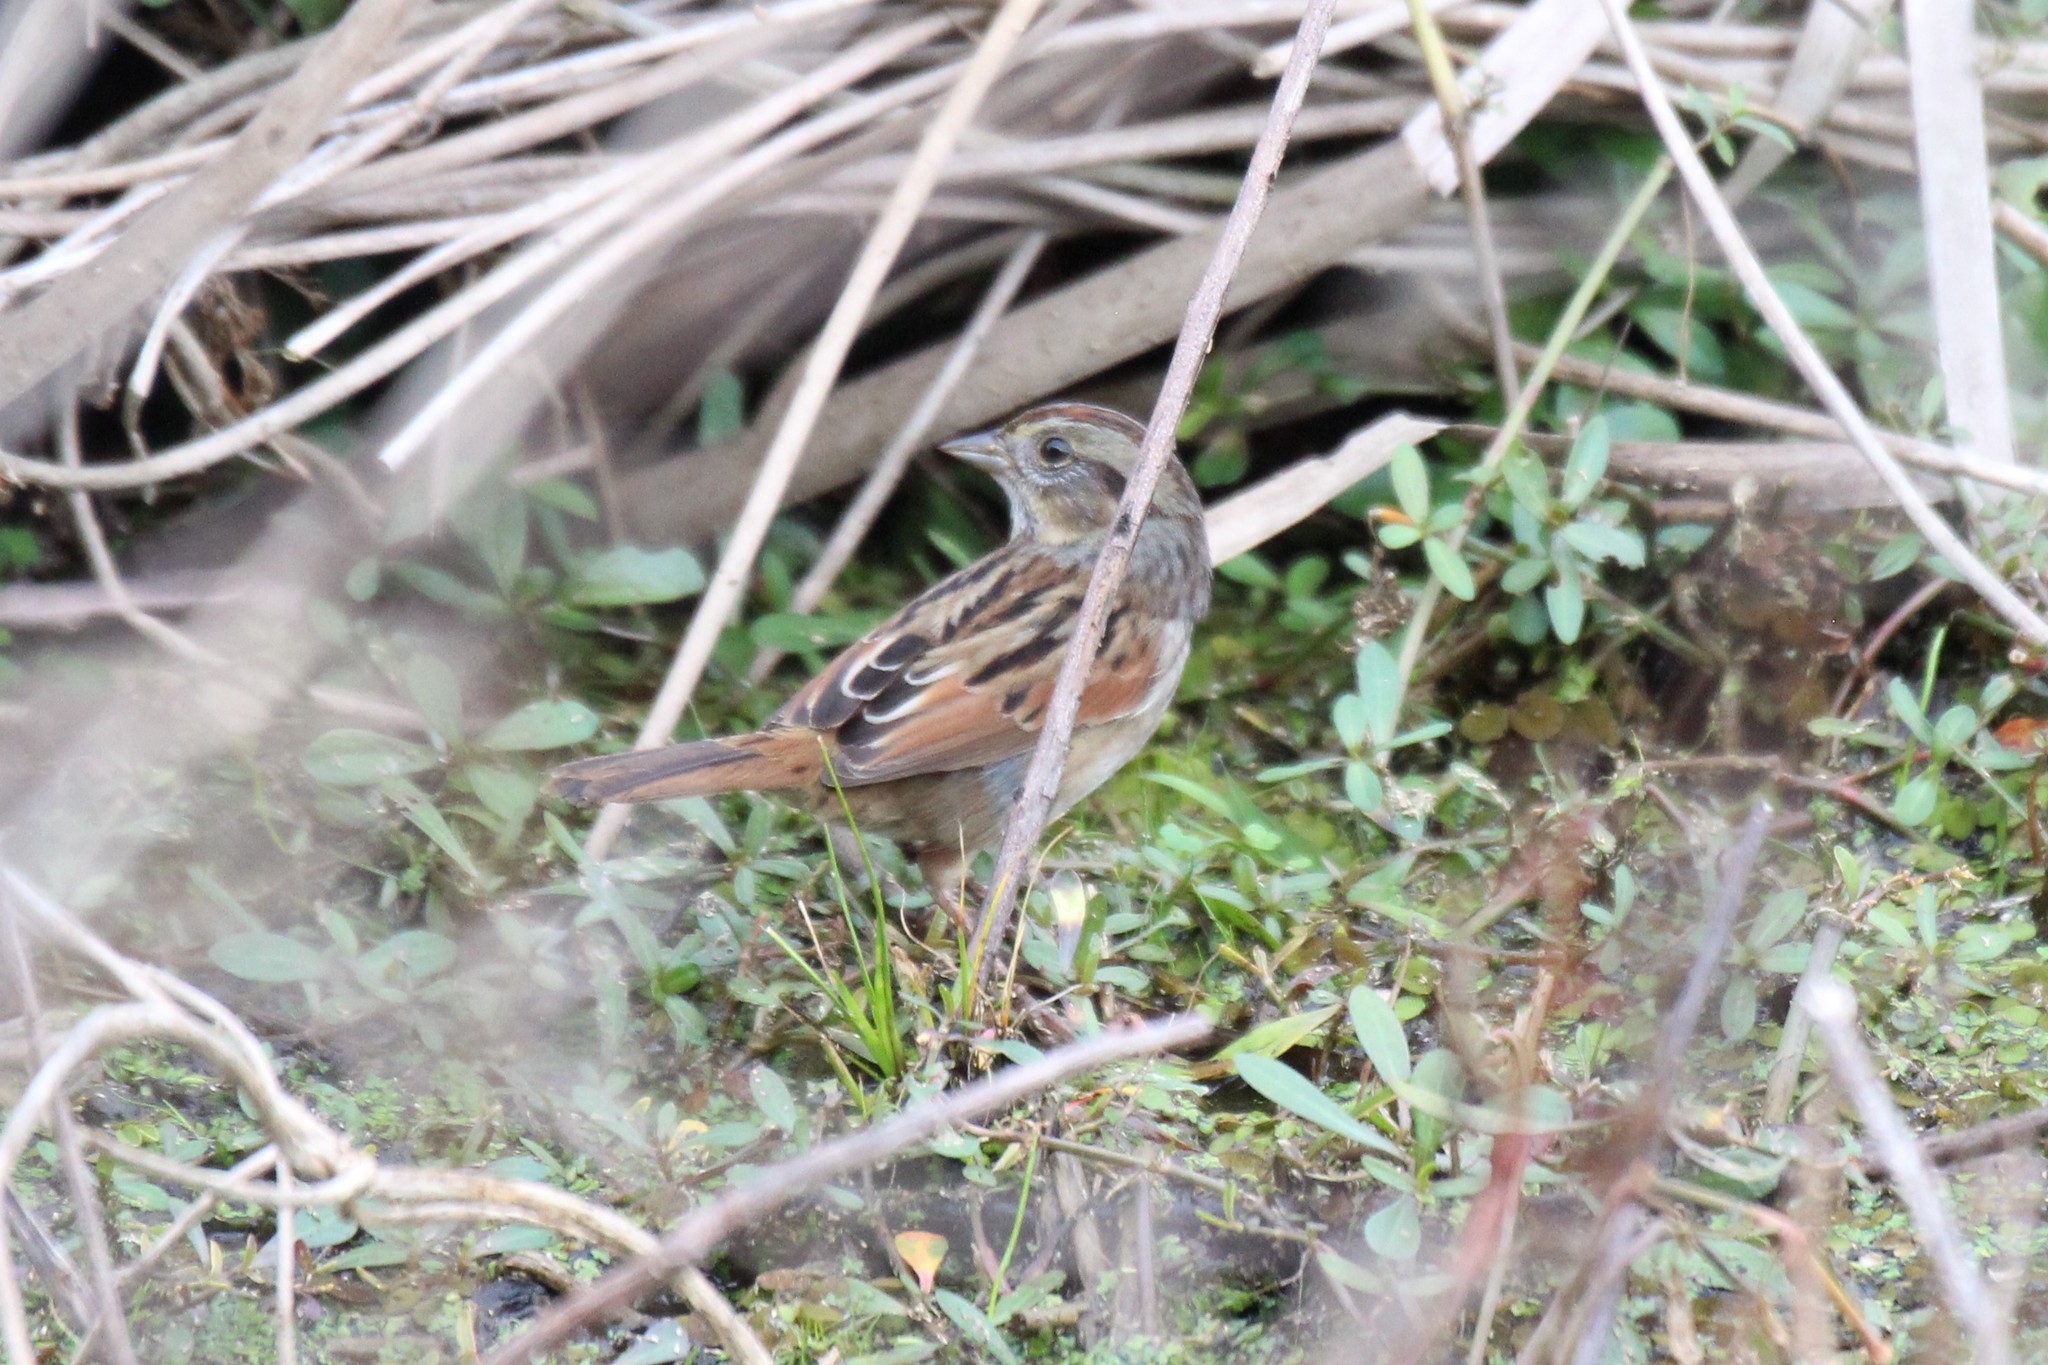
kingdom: Animalia
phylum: Chordata
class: Aves
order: Passeriformes
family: Passerellidae
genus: Melospiza
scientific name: Melospiza georgiana
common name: Swamp sparrow
